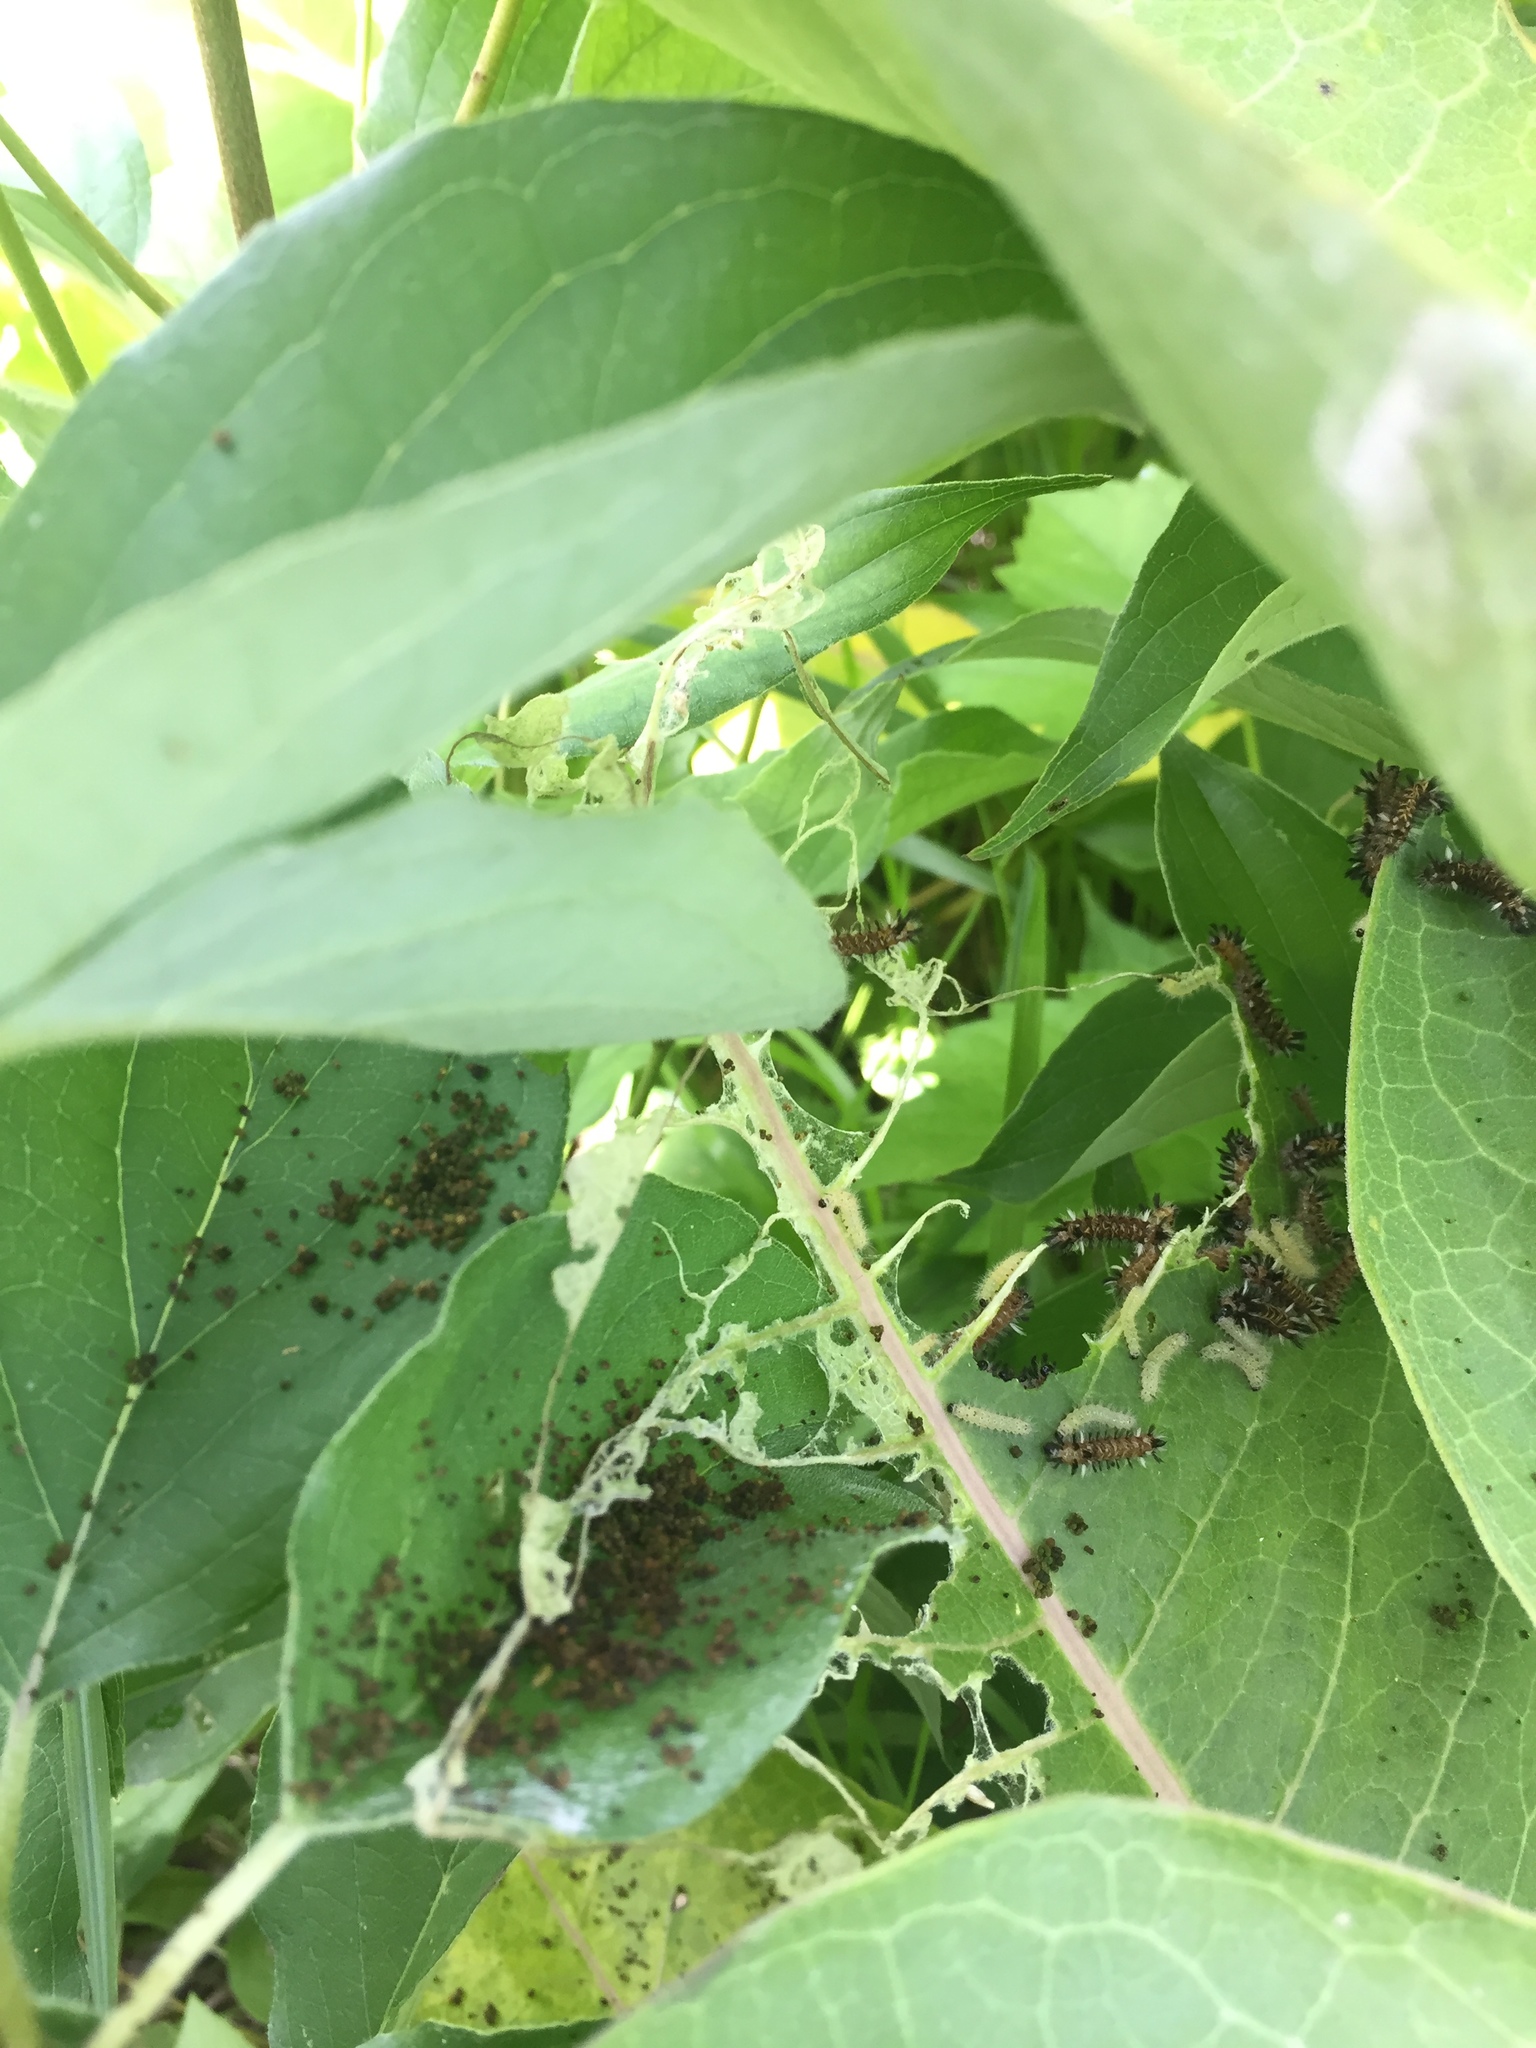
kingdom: Animalia
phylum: Arthropoda
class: Insecta
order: Lepidoptera
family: Erebidae
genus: Euchaetes
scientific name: Euchaetes egle
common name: Milkweed tussock moth
